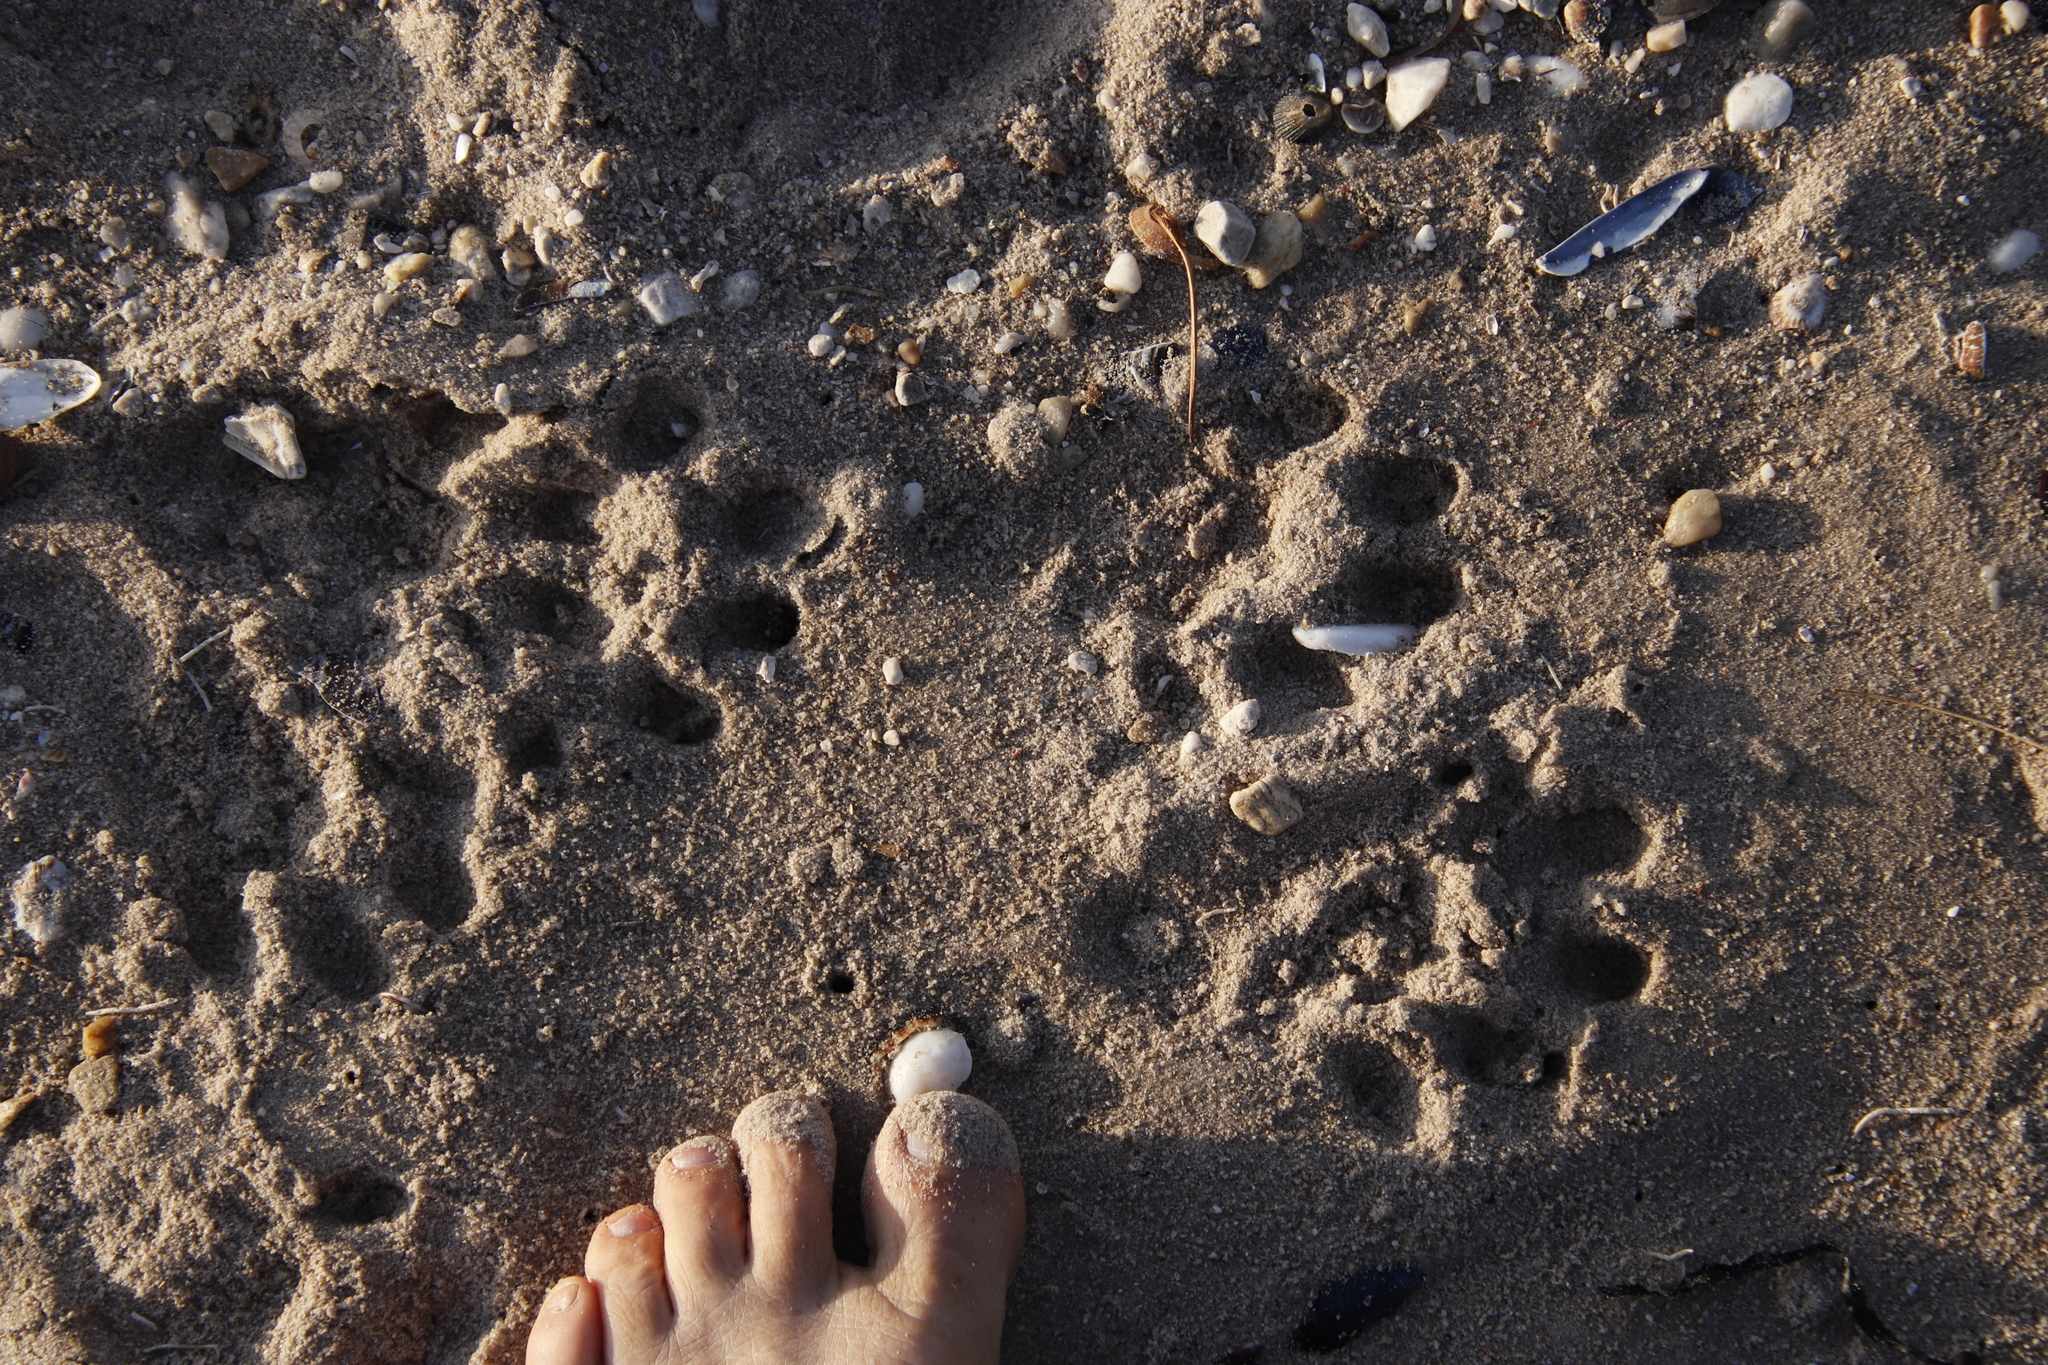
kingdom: Animalia
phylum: Chordata
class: Mammalia
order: Carnivora
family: Mustelidae
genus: Aonyx
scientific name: Aonyx capensis
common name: African clawless otter
